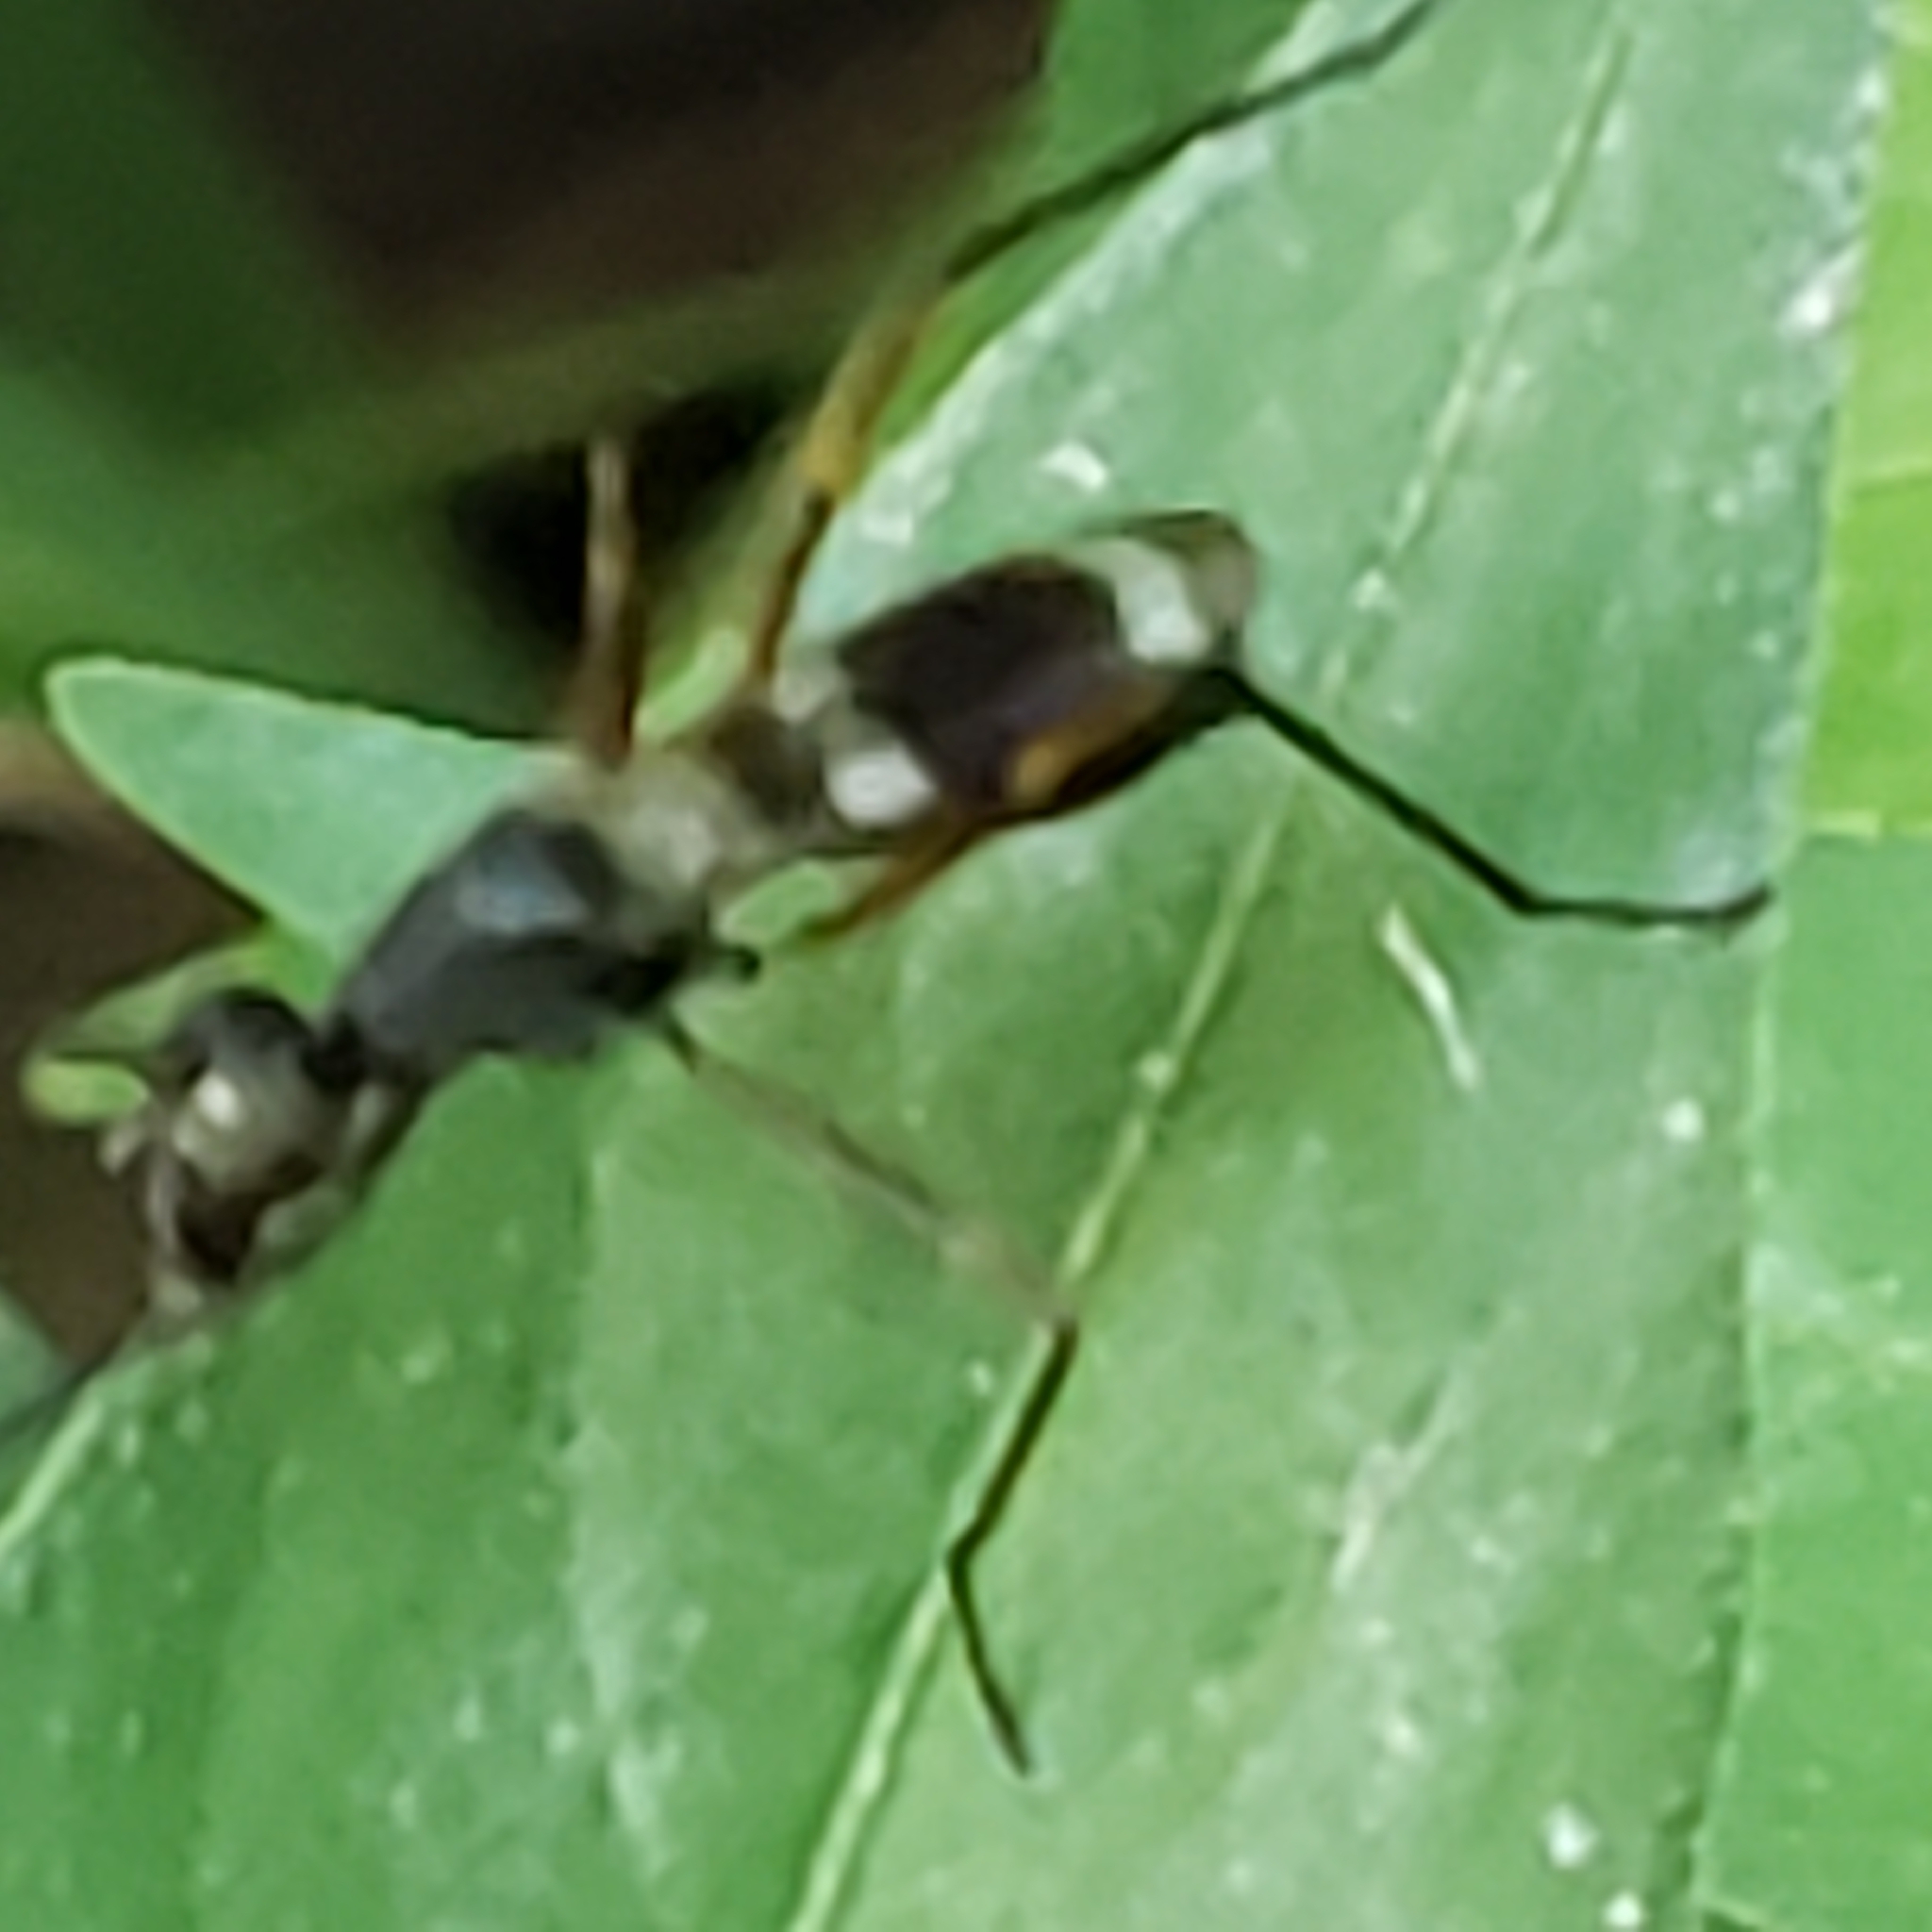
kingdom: Animalia
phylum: Arthropoda
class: Insecta
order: Diptera
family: Micropezidae
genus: Taeniaptera
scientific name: Taeniaptera trivittata
